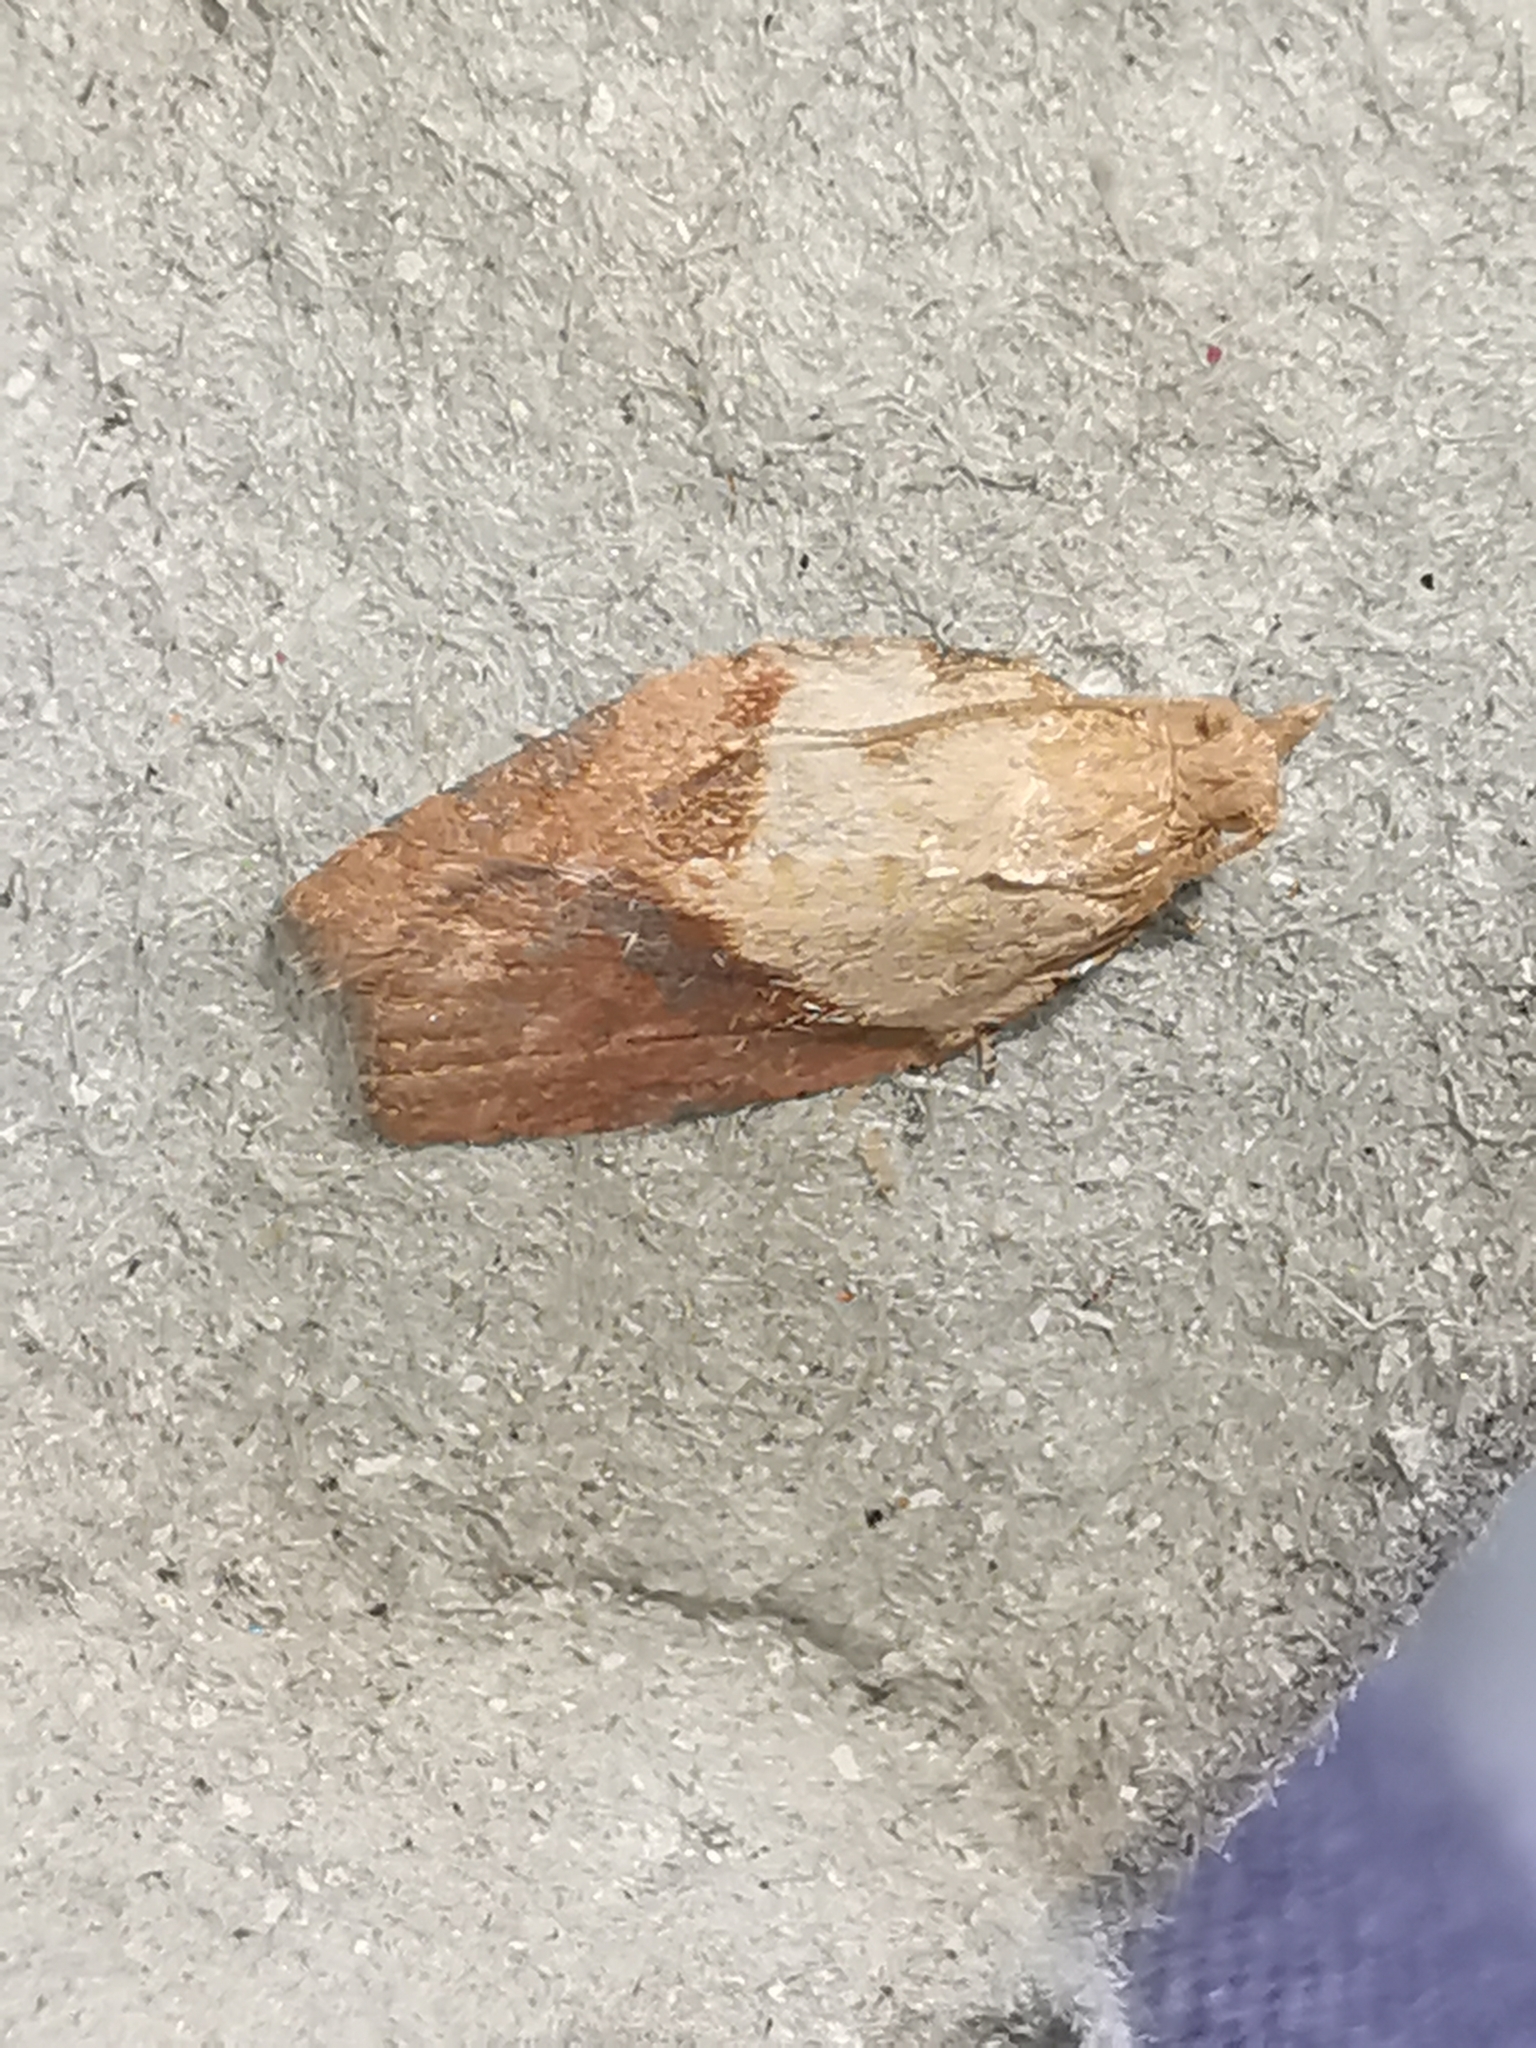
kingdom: Animalia
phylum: Arthropoda
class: Insecta
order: Lepidoptera
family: Tortricidae
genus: Epiphyas
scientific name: Epiphyas postvittana
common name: Light brown apple moth
